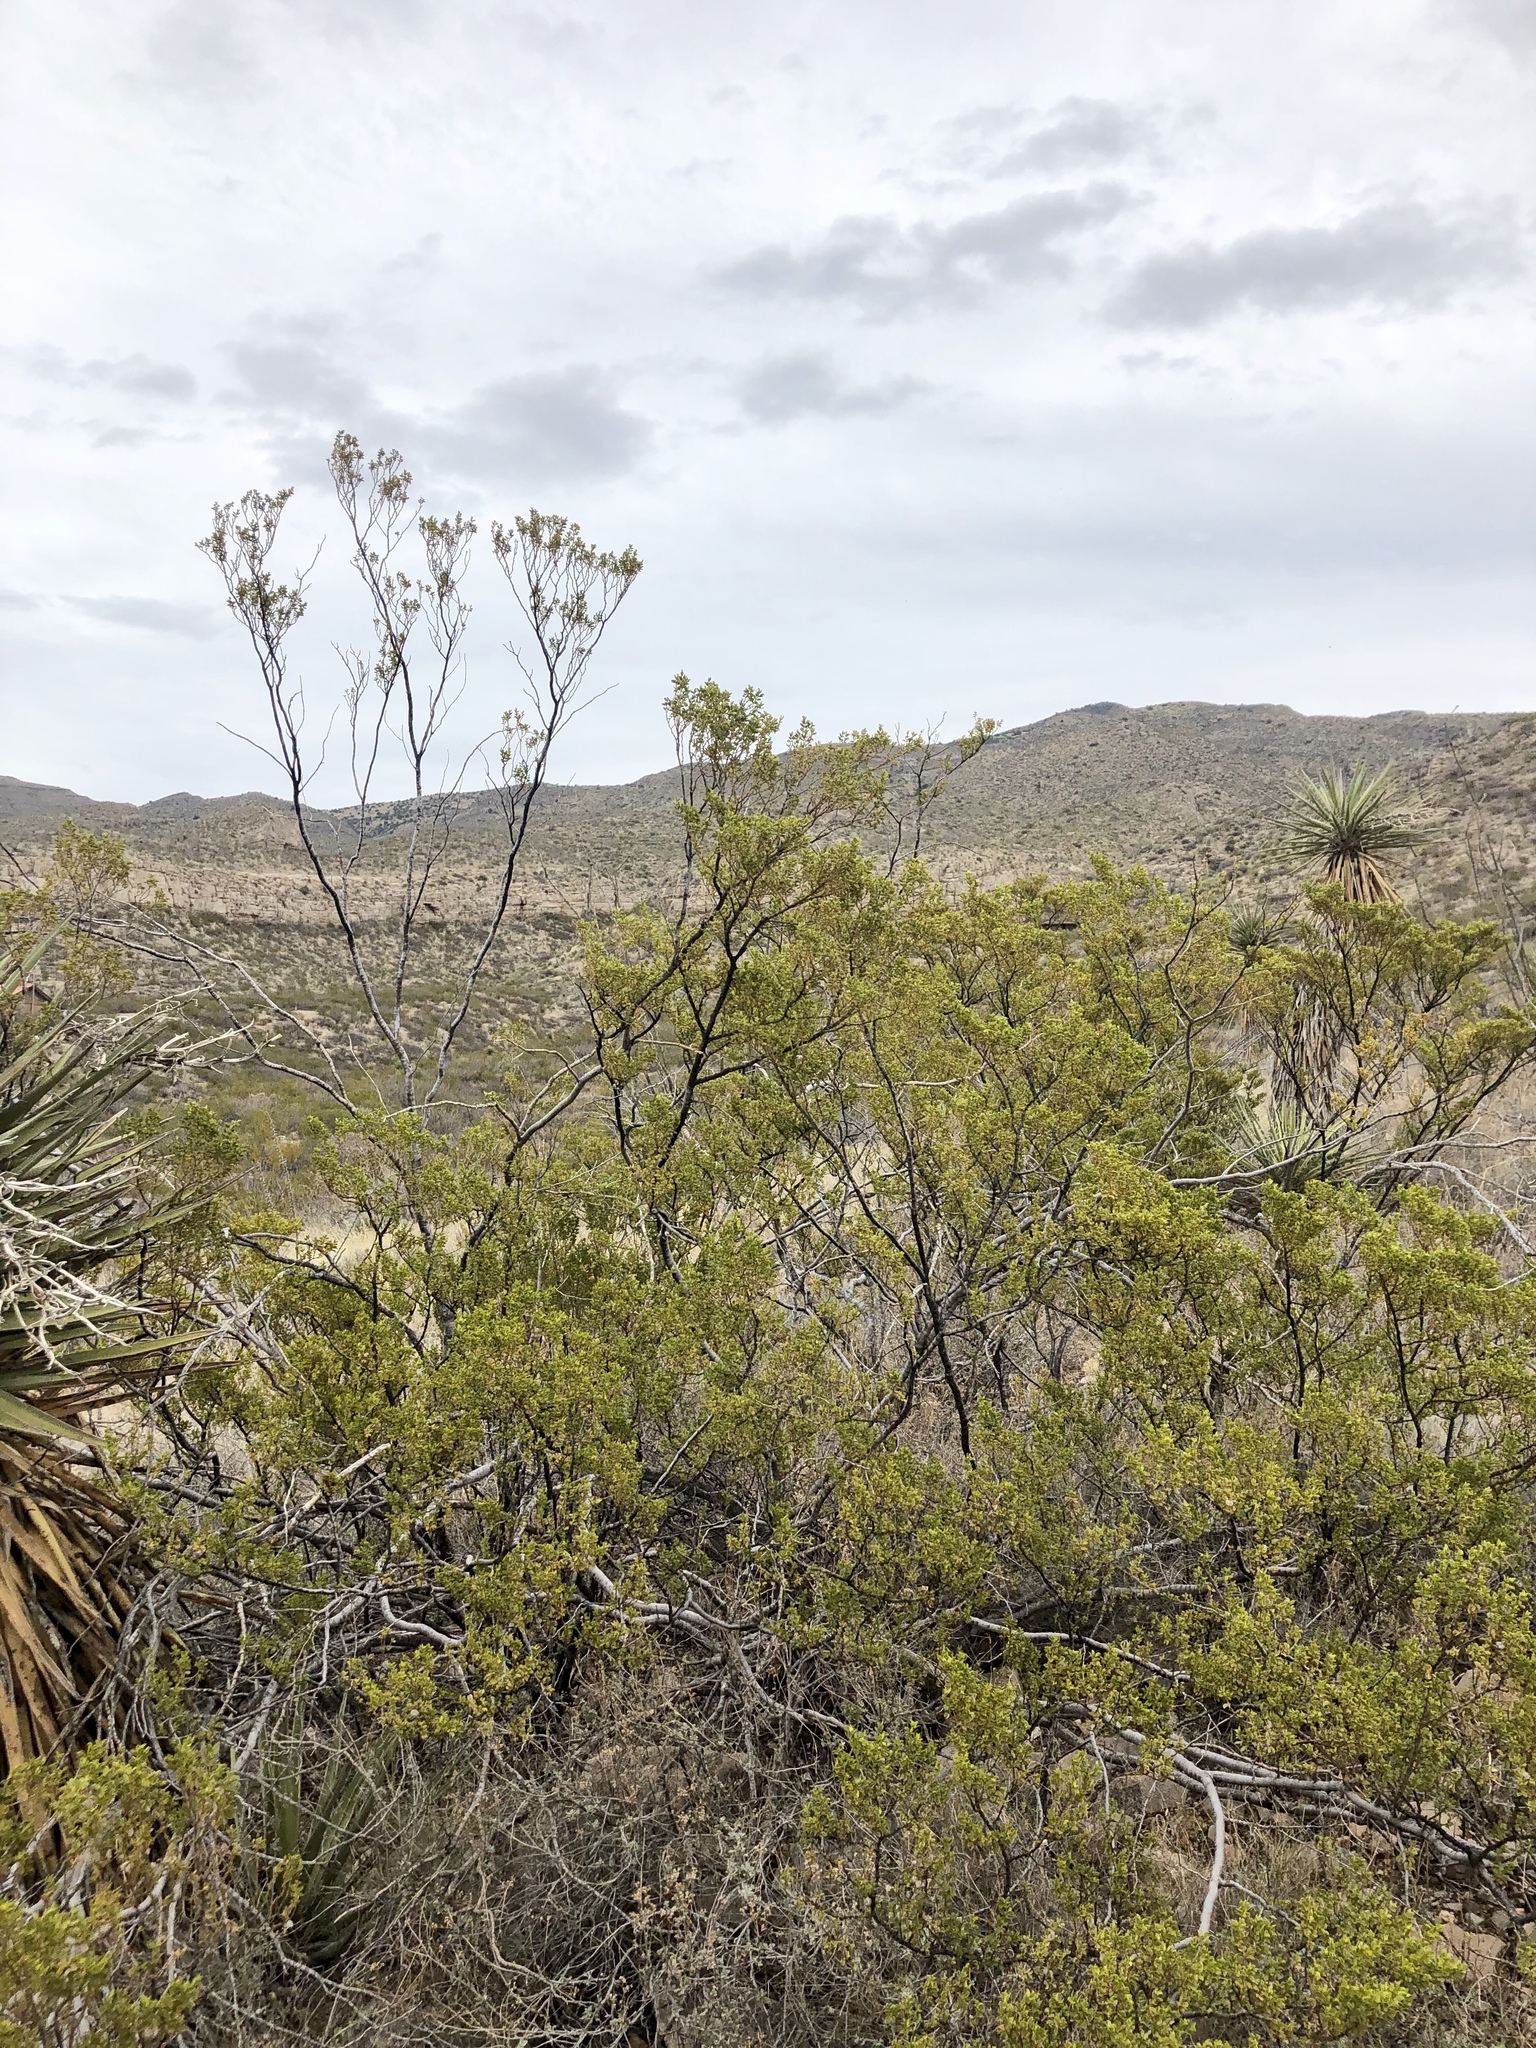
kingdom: Plantae
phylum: Tracheophyta
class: Magnoliopsida
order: Zygophyllales
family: Zygophyllaceae
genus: Larrea
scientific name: Larrea tridentata
